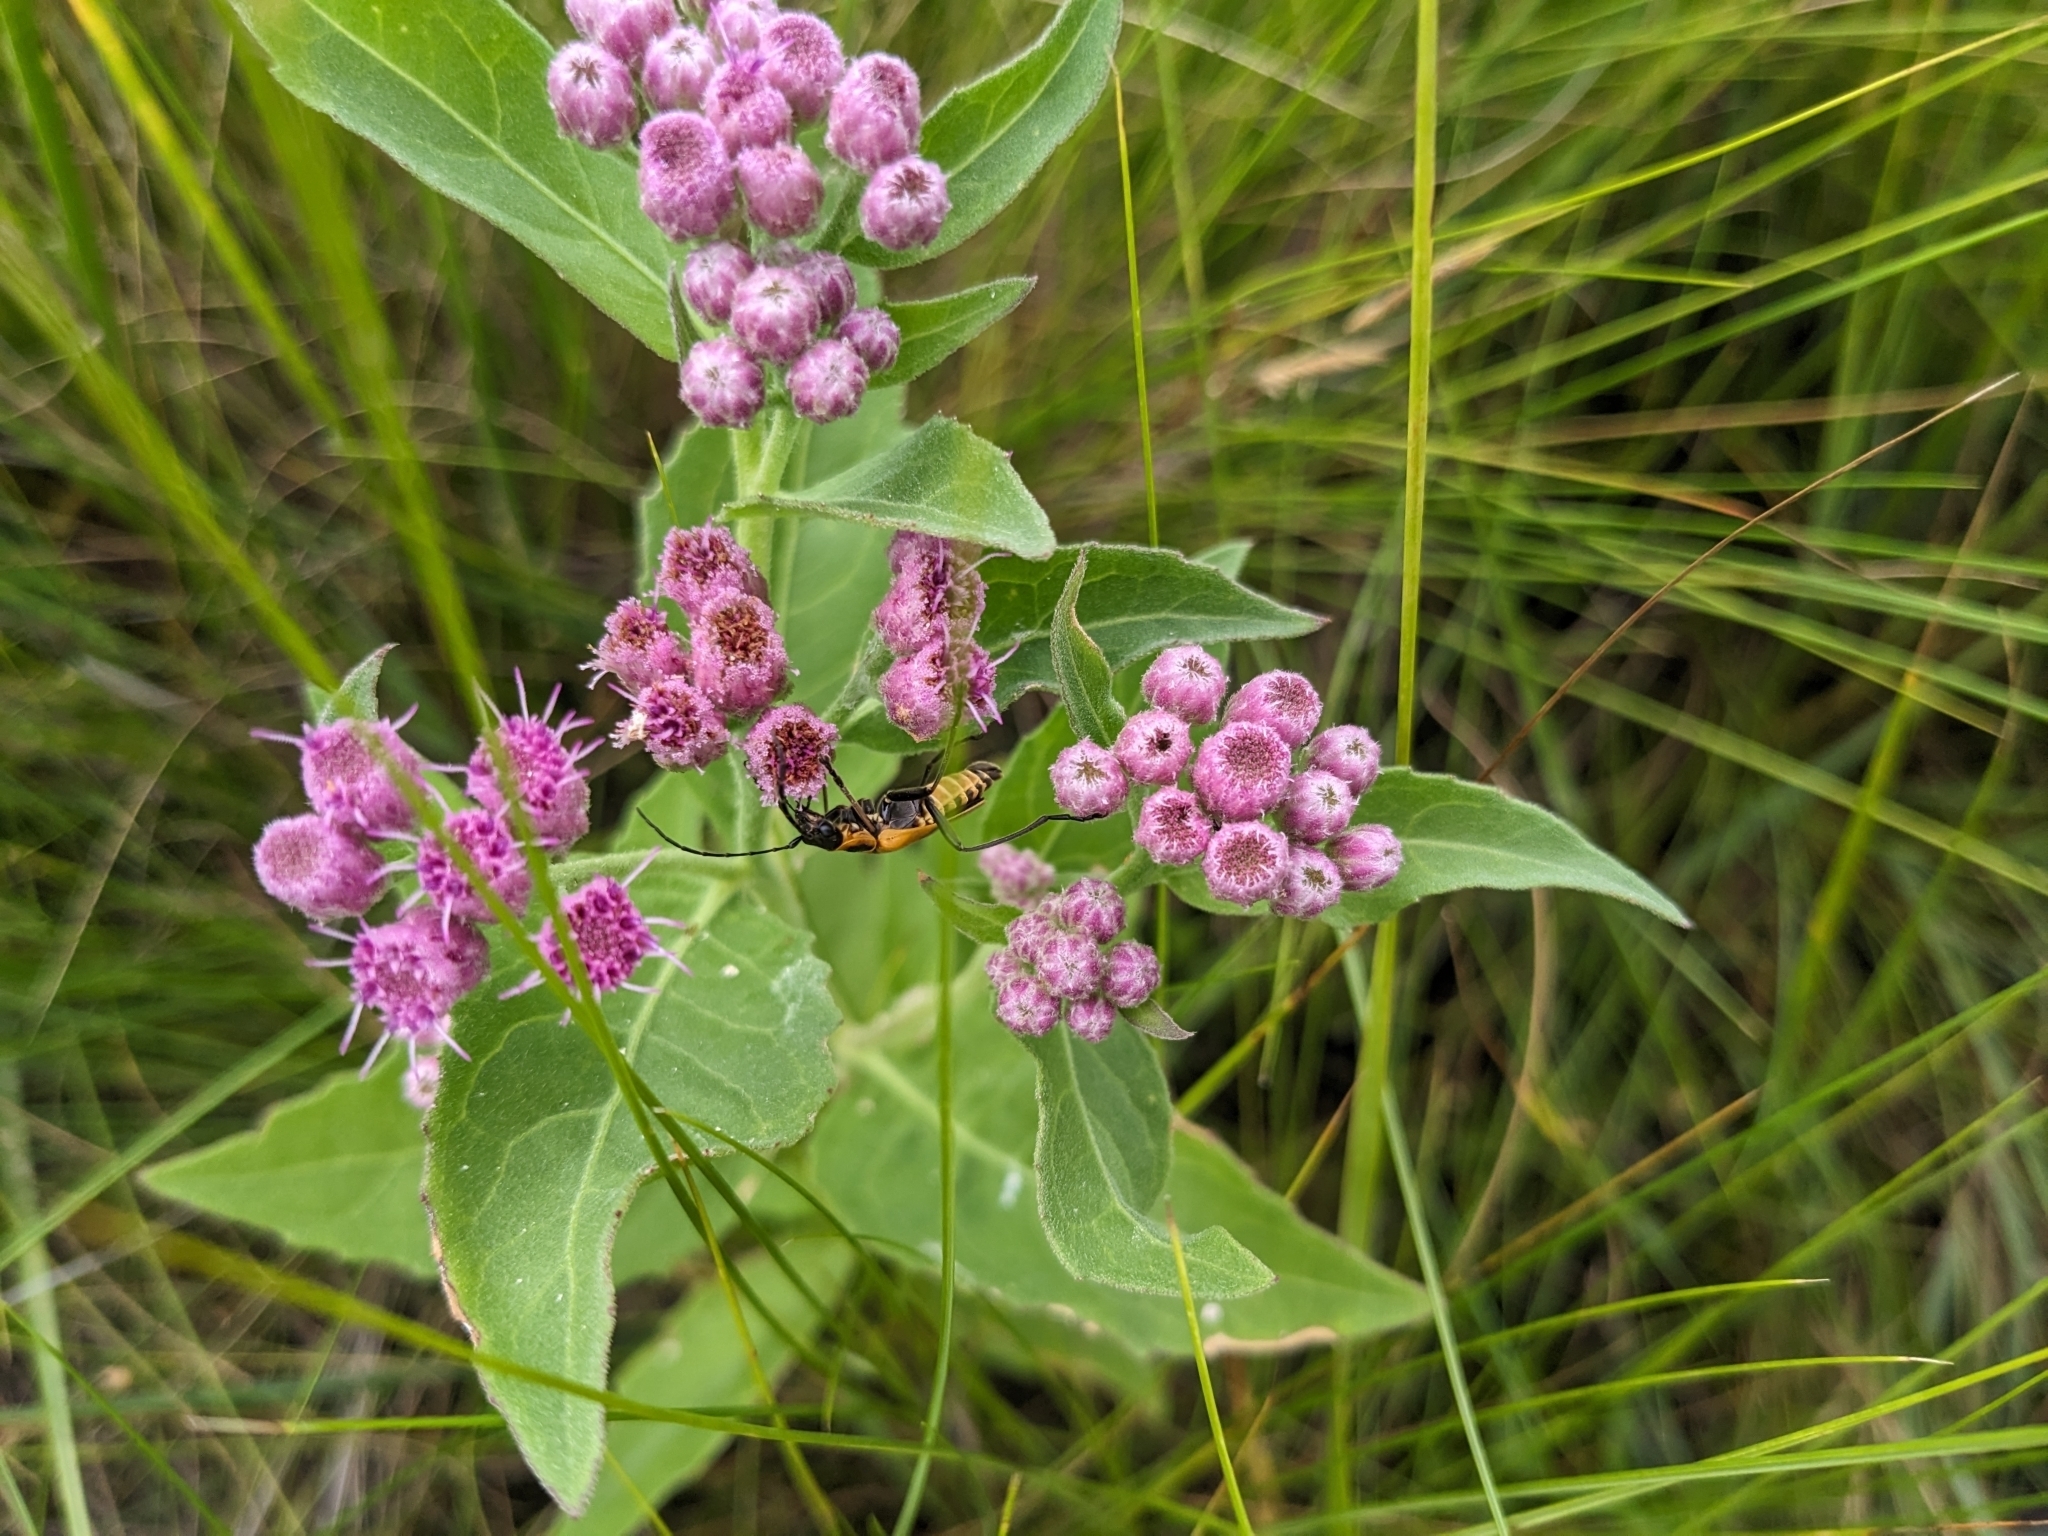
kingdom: Plantae
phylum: Tracheophyta
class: Magnoliopsida
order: Asterales
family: Asteraceae
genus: Pluchea
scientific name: Pluchea odorata
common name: Saltmarsh fleabane
